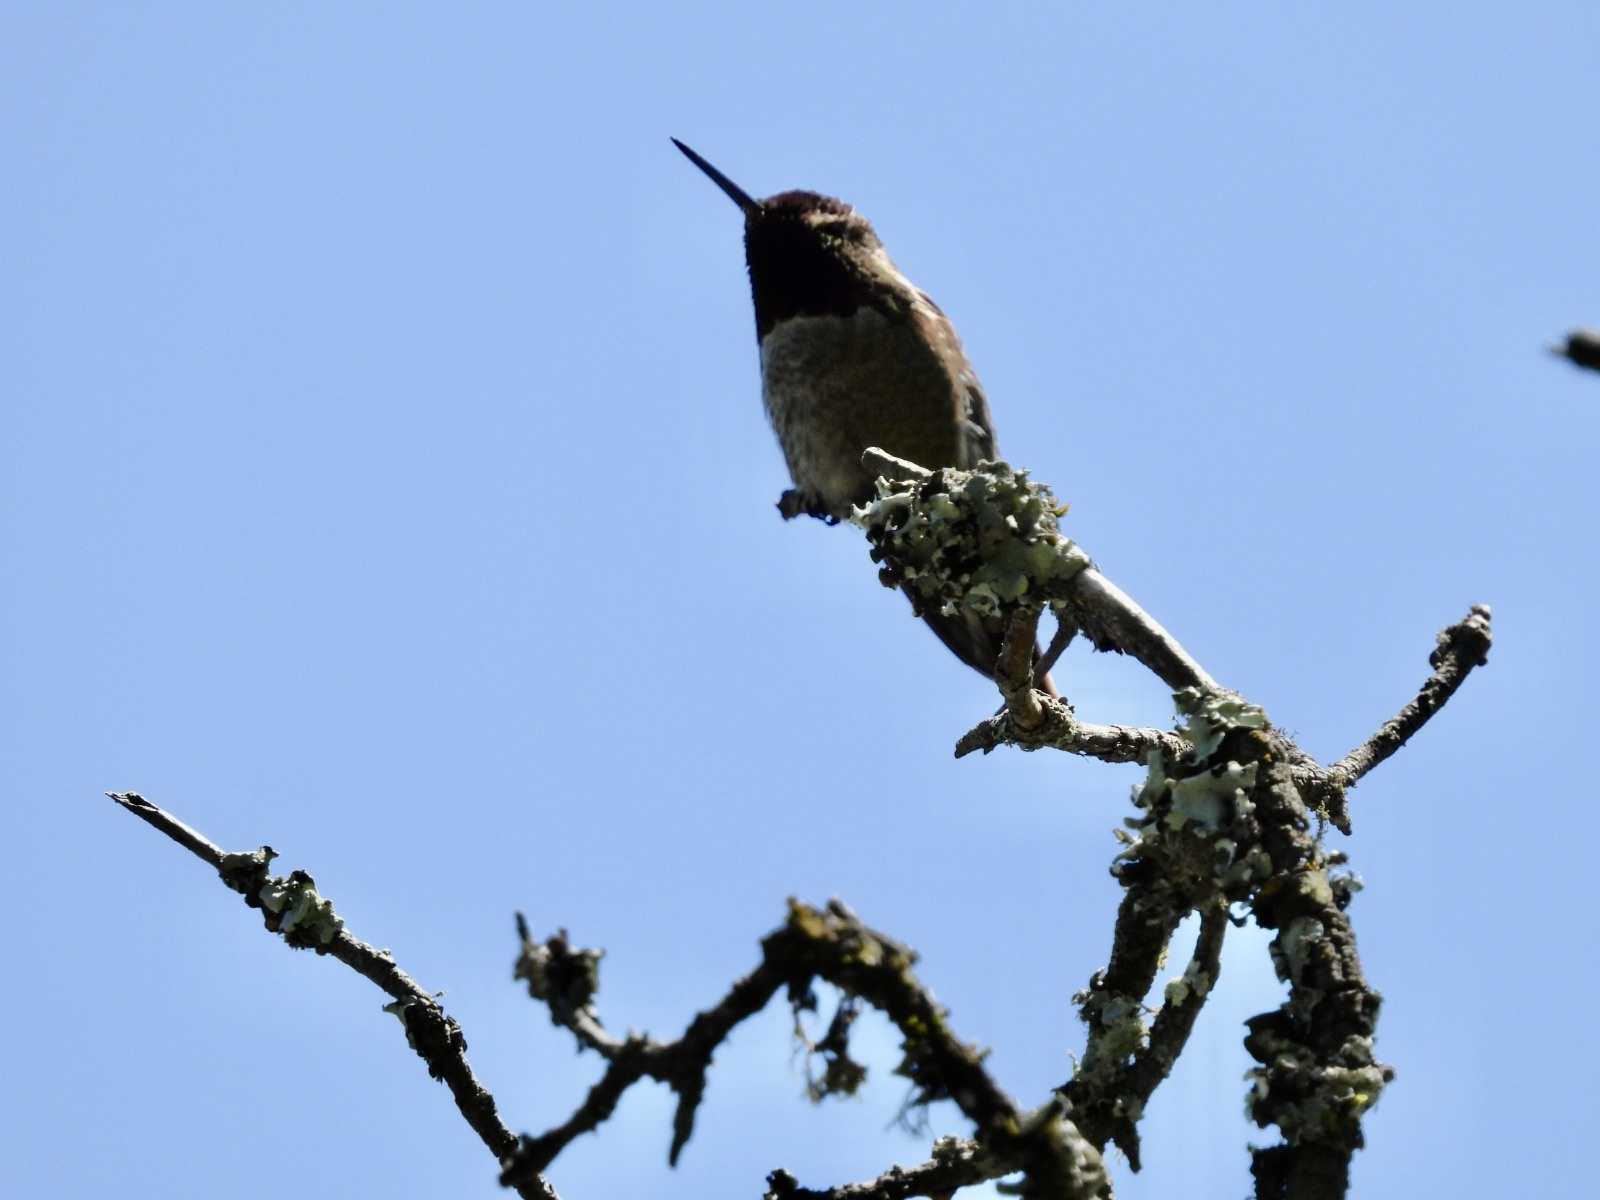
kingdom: Animalia
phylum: Chordata
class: Aves
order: Apodiformes
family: Trochilidae
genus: Calypte
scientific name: Calypte anna
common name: Anna's hummingbird
